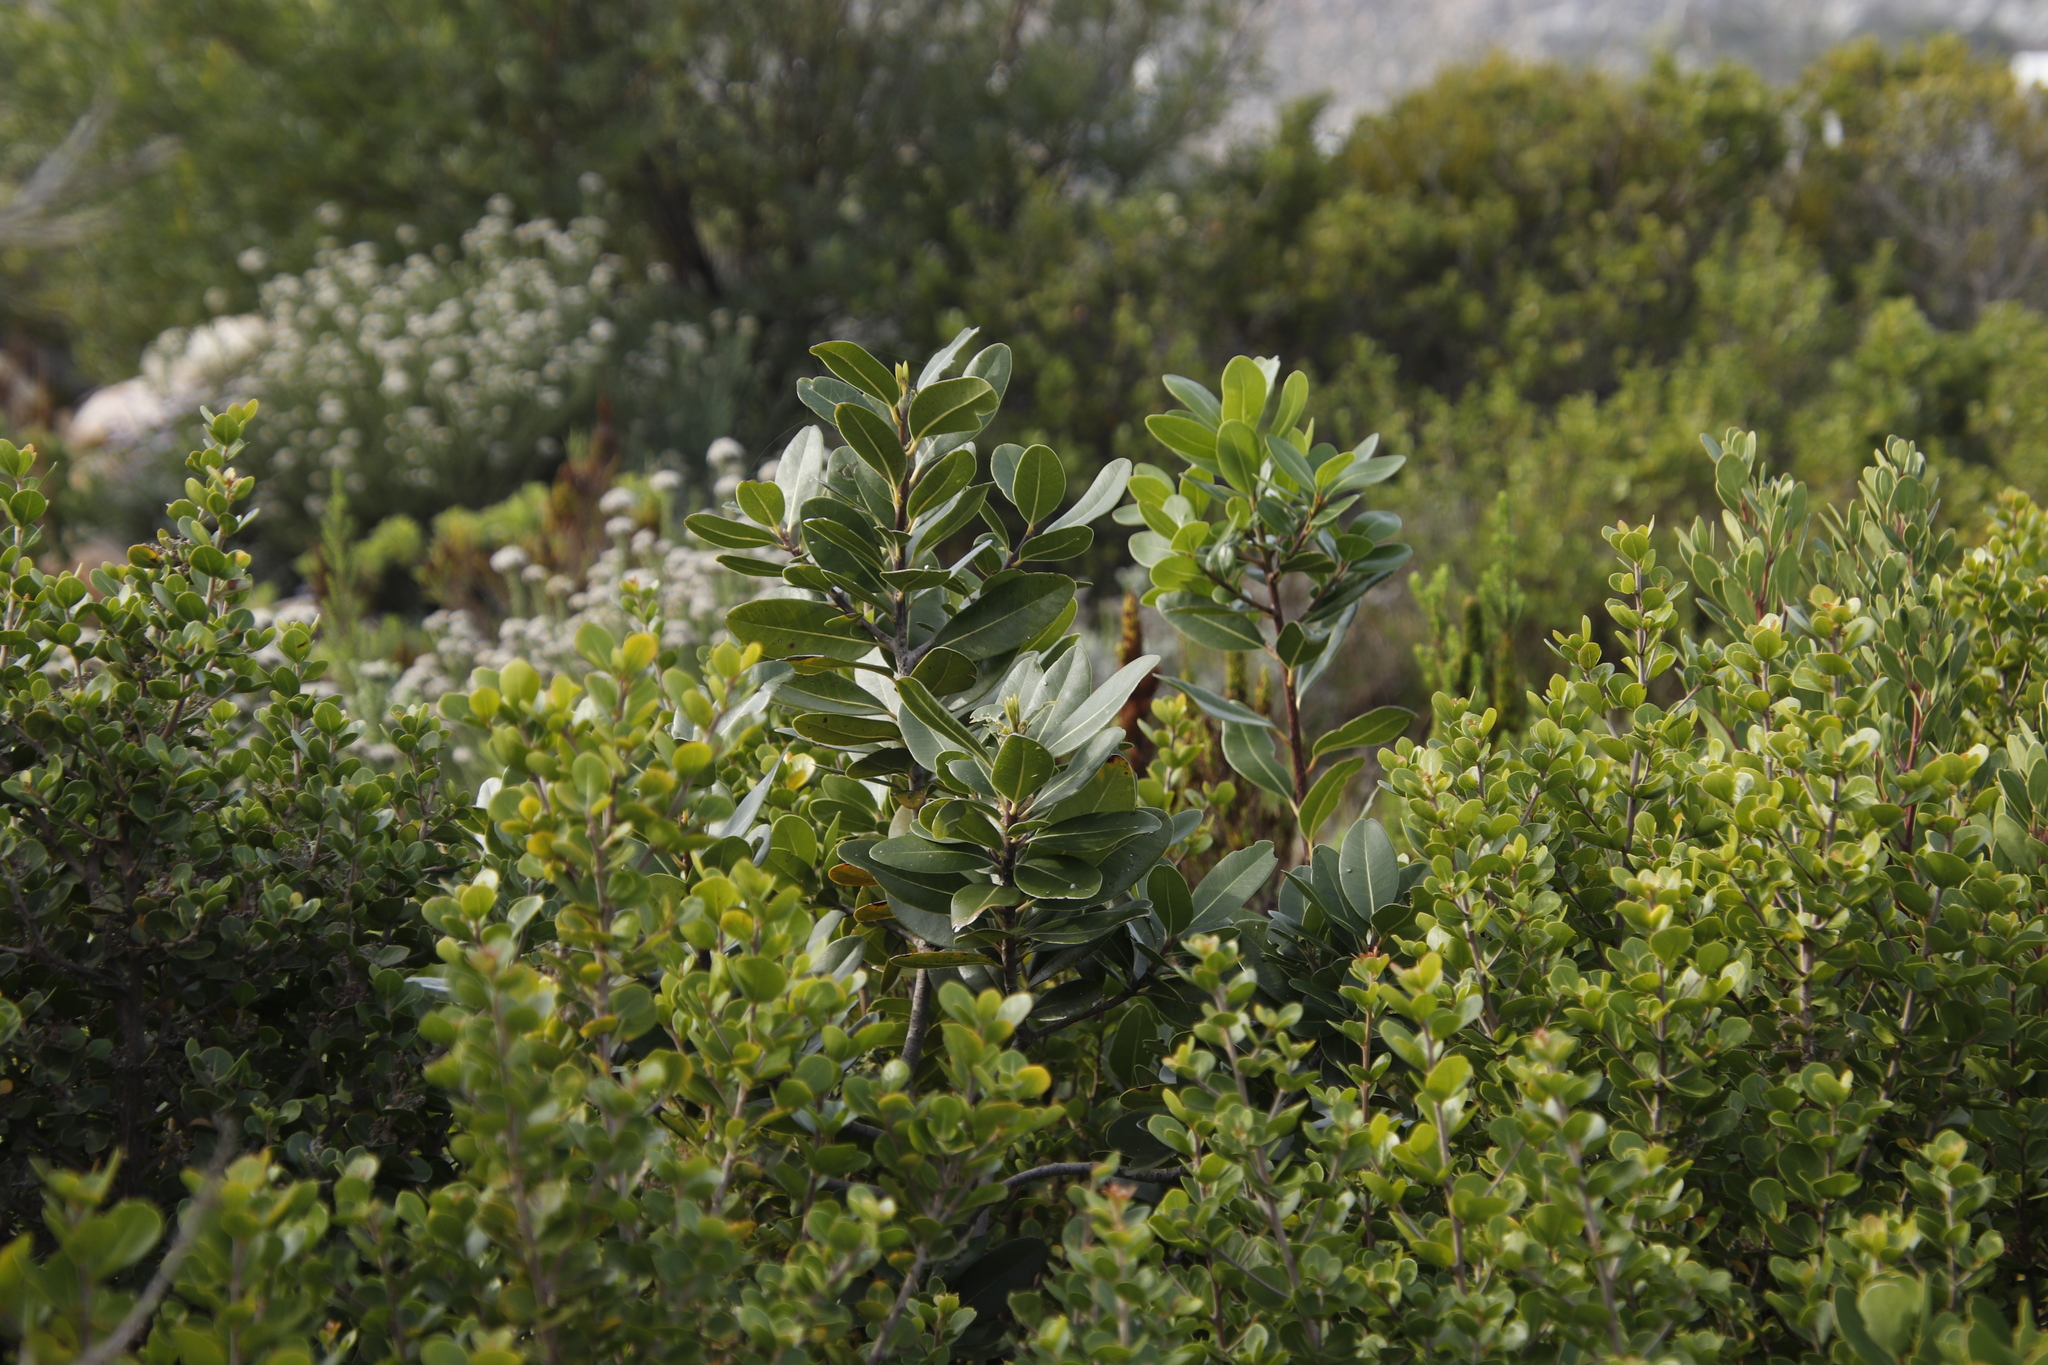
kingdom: Plantae
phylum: Tracheophyta
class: Magnoliopsida
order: Ericales
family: Sapotaceae
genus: Sideroxylon
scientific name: Sideroxylon inerme
